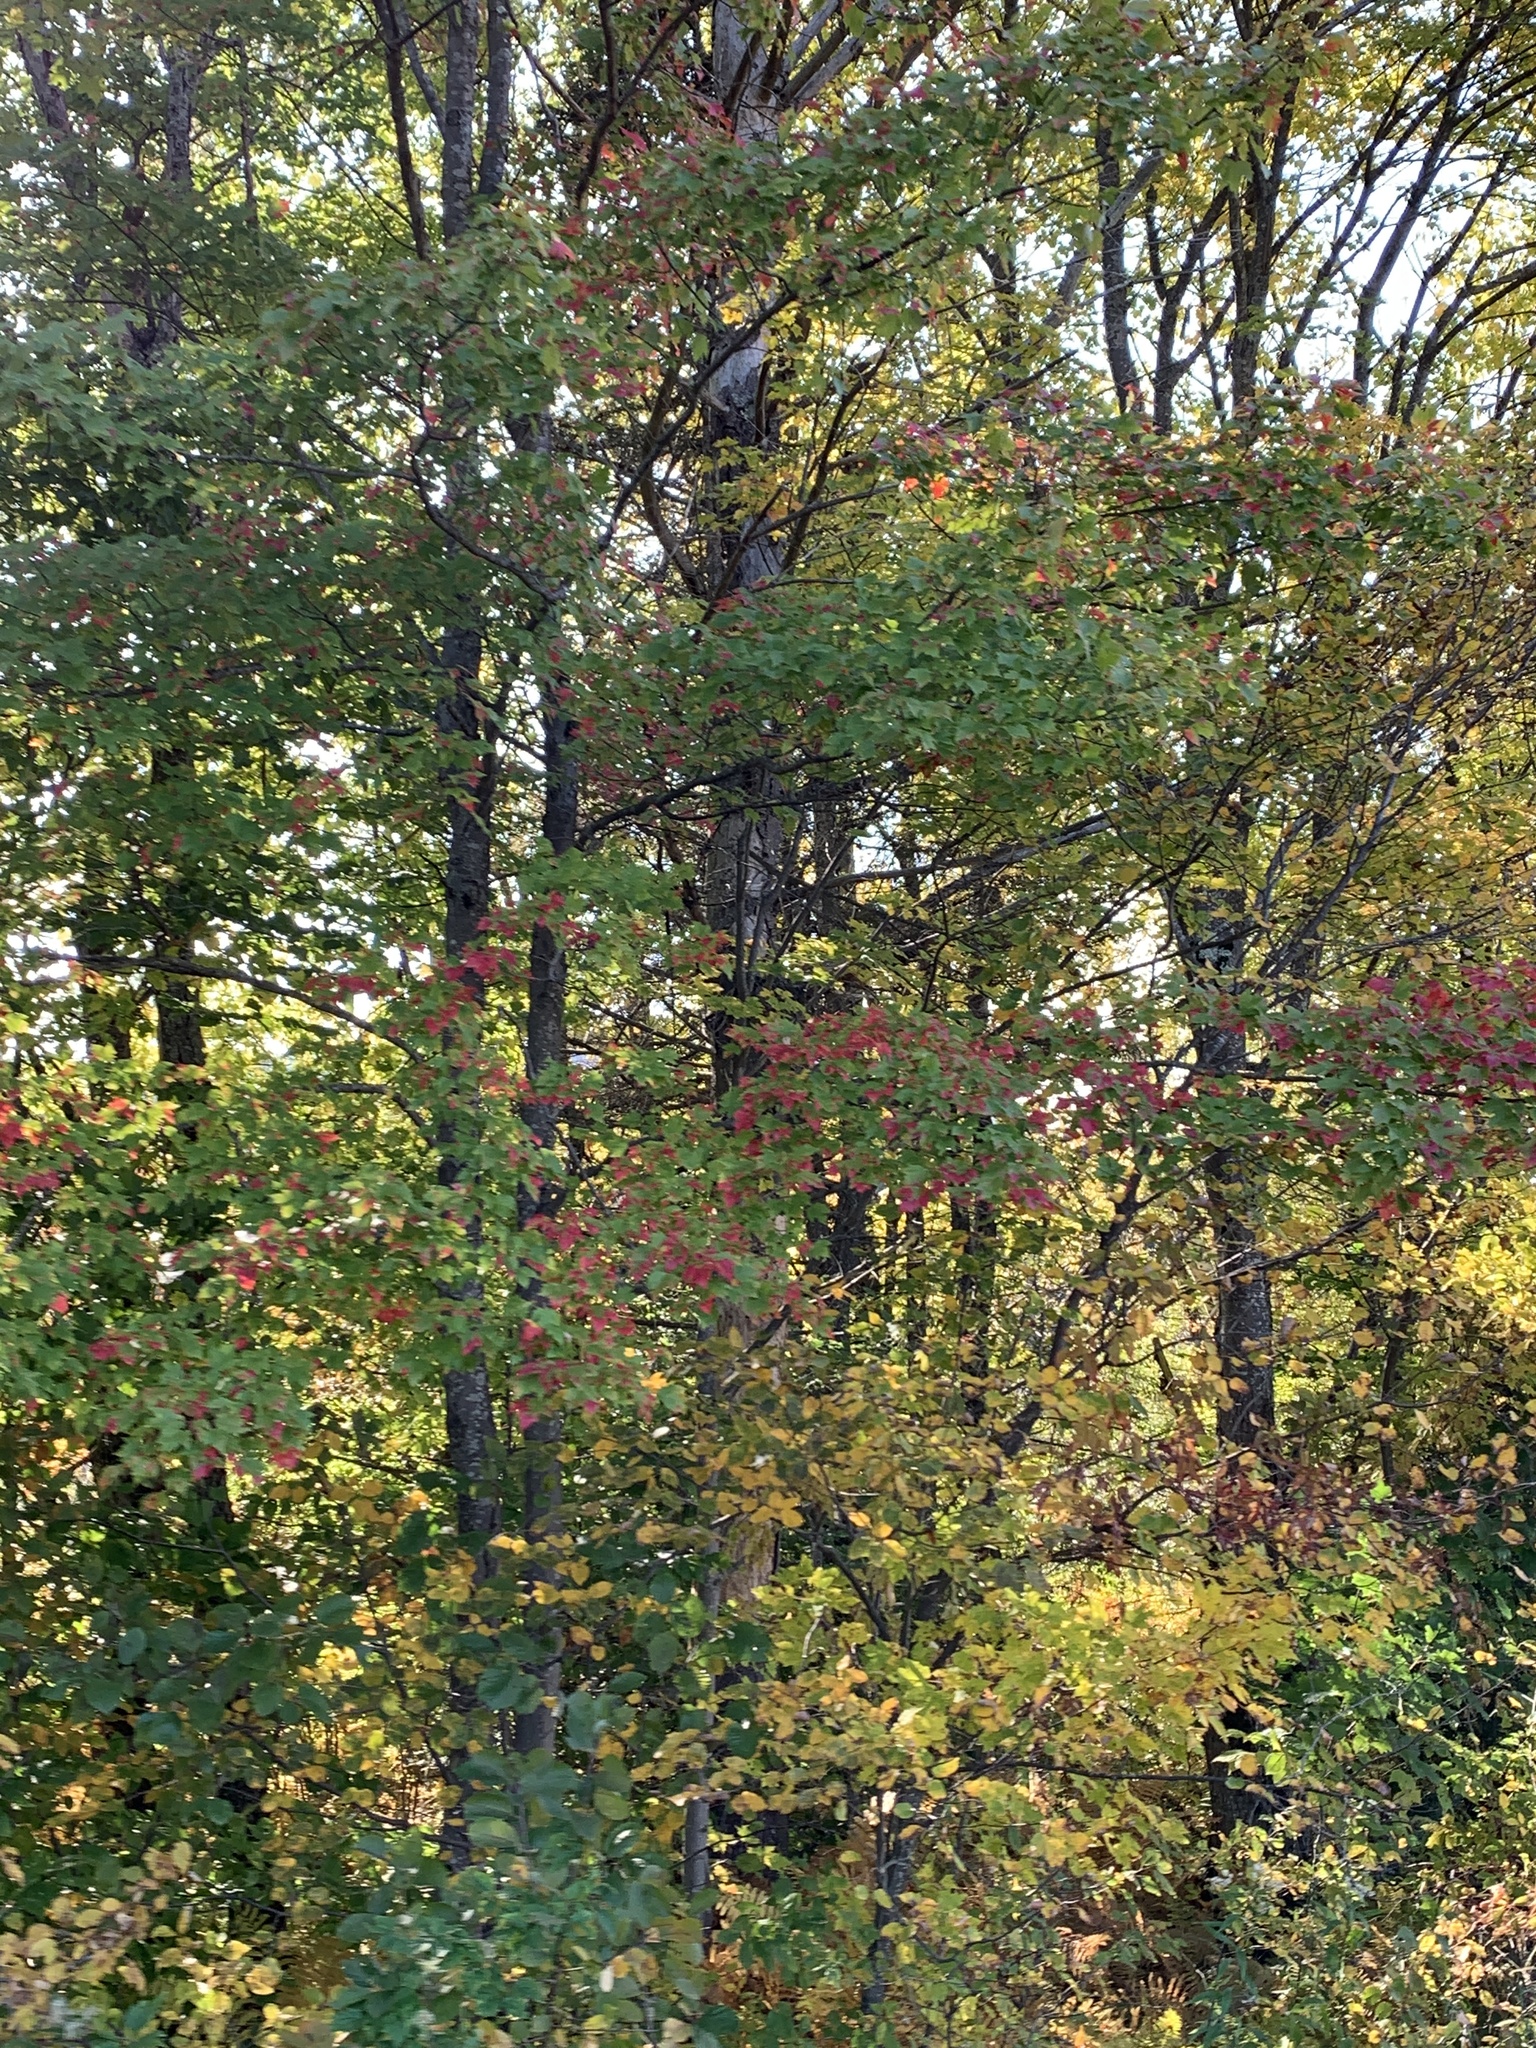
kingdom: Plantae
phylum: Tracheophyta
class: Magnoliopsida
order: Sapindales
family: Sapindaceae
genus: Acer
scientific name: Acer rubrum
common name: Red maple
